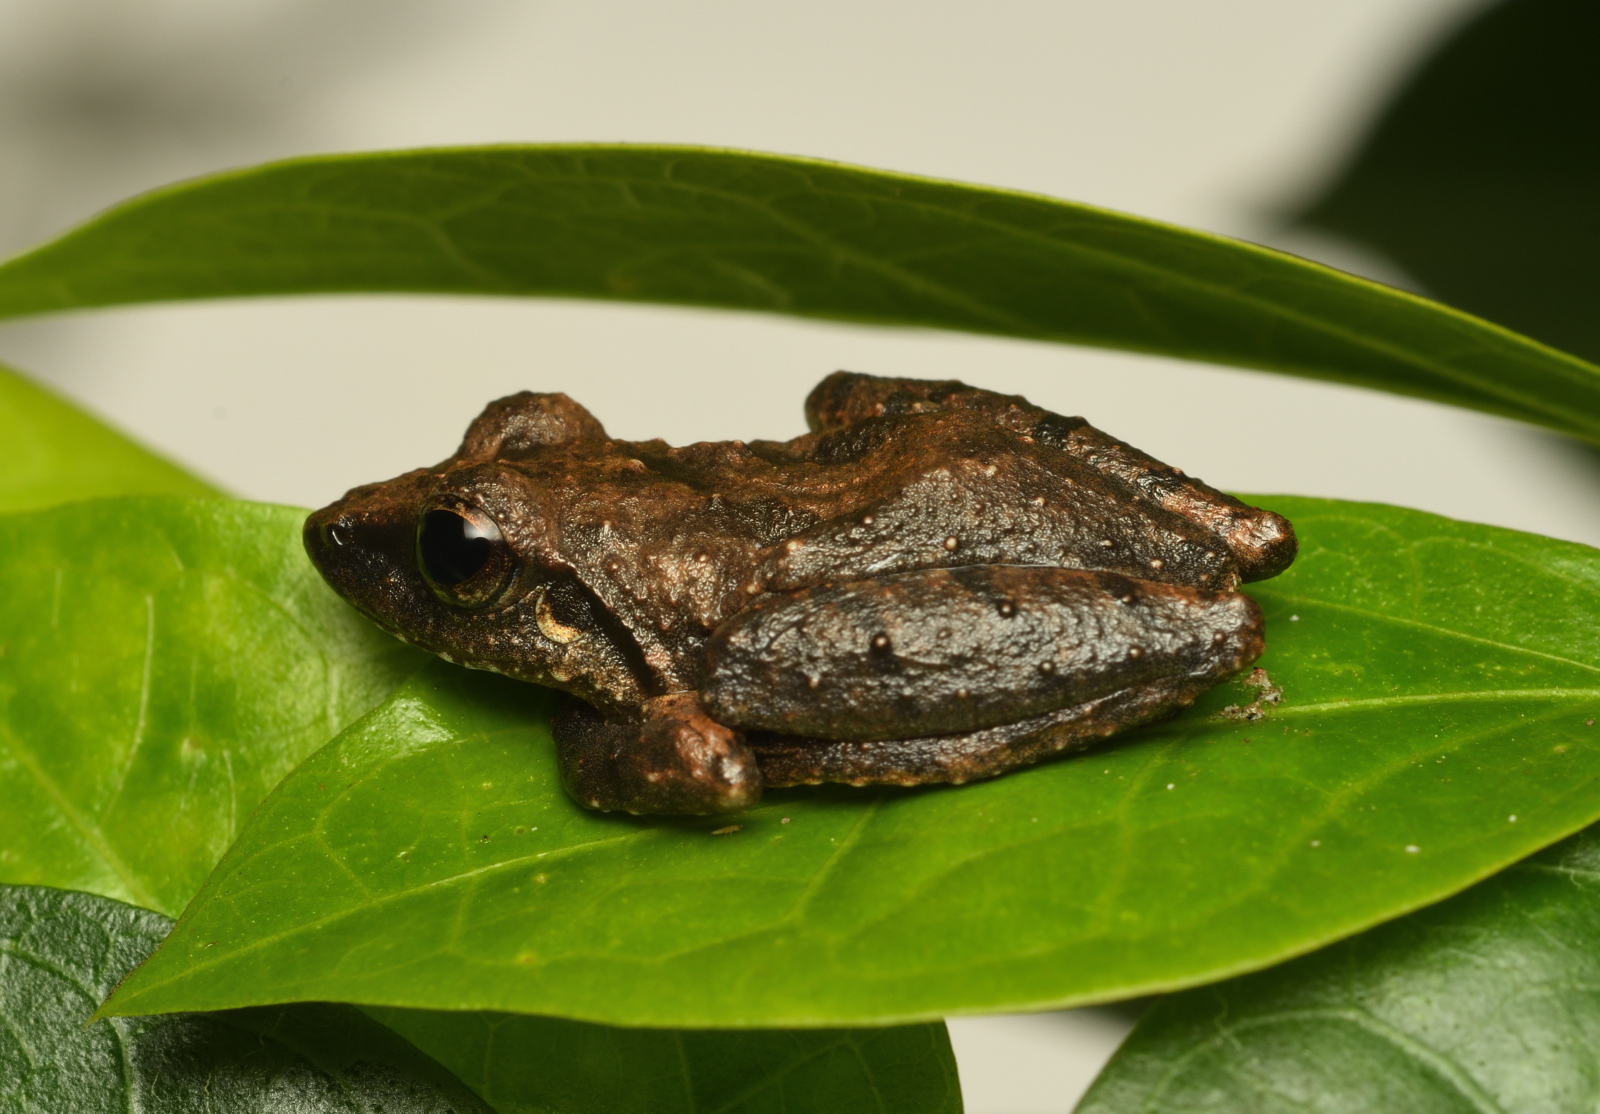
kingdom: Animalia
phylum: Chordata
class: Amphibia
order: Anura
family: Rhacophoridae
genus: Pseudophilautus
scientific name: Pseudophilautus wynaadensis
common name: Dark-eared bush frog
